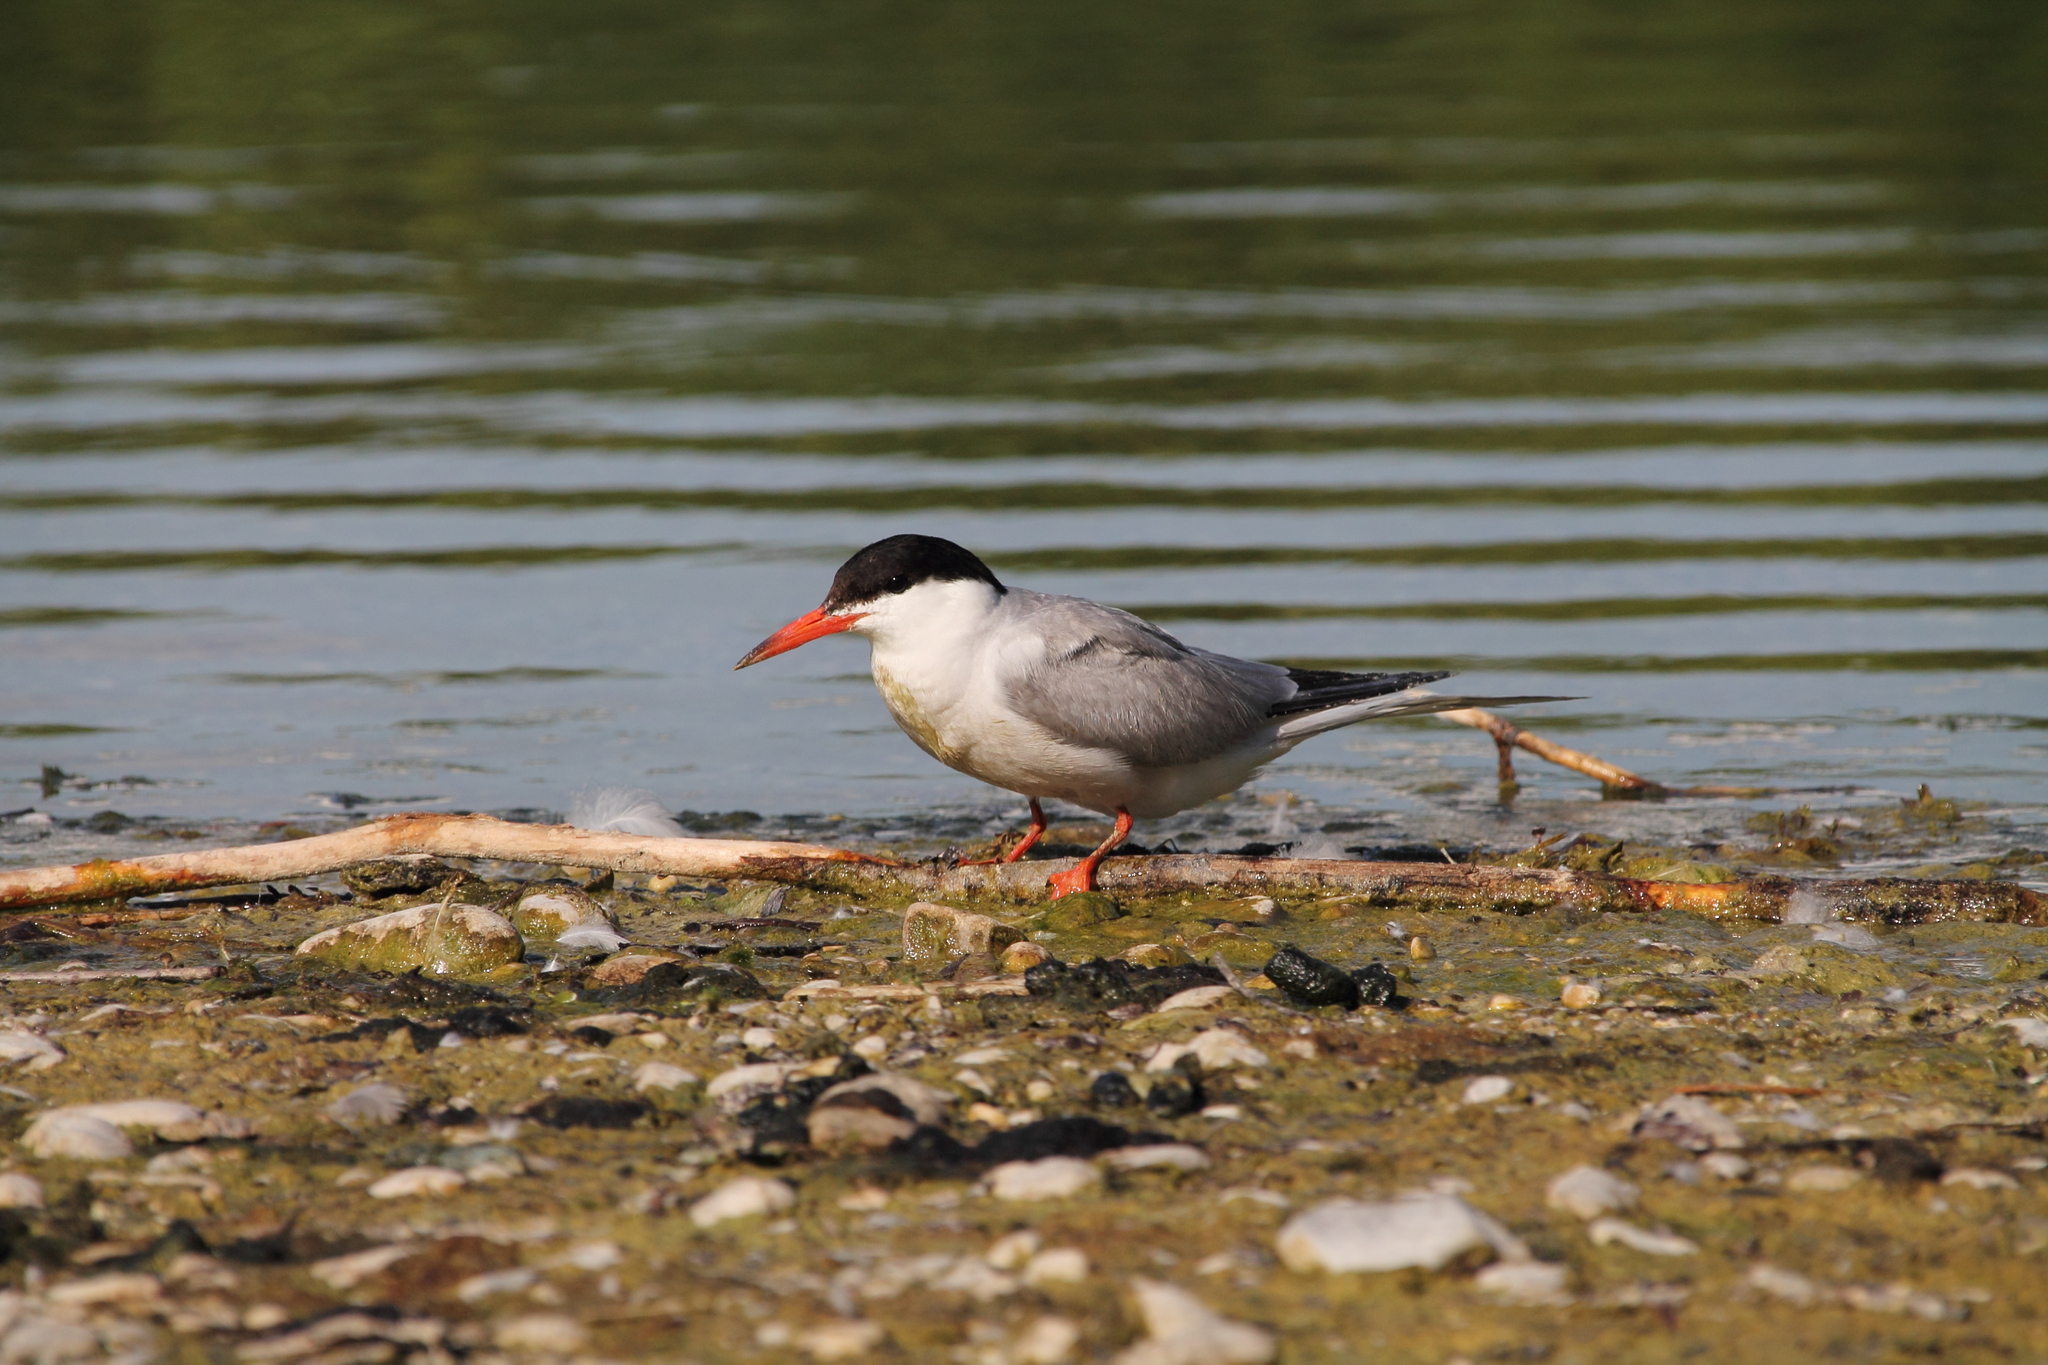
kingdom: Animalia
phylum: Chordata
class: Aves
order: Charadriiformes
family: Laridae
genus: Sterna
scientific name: Sterna hirundo
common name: Common tern
